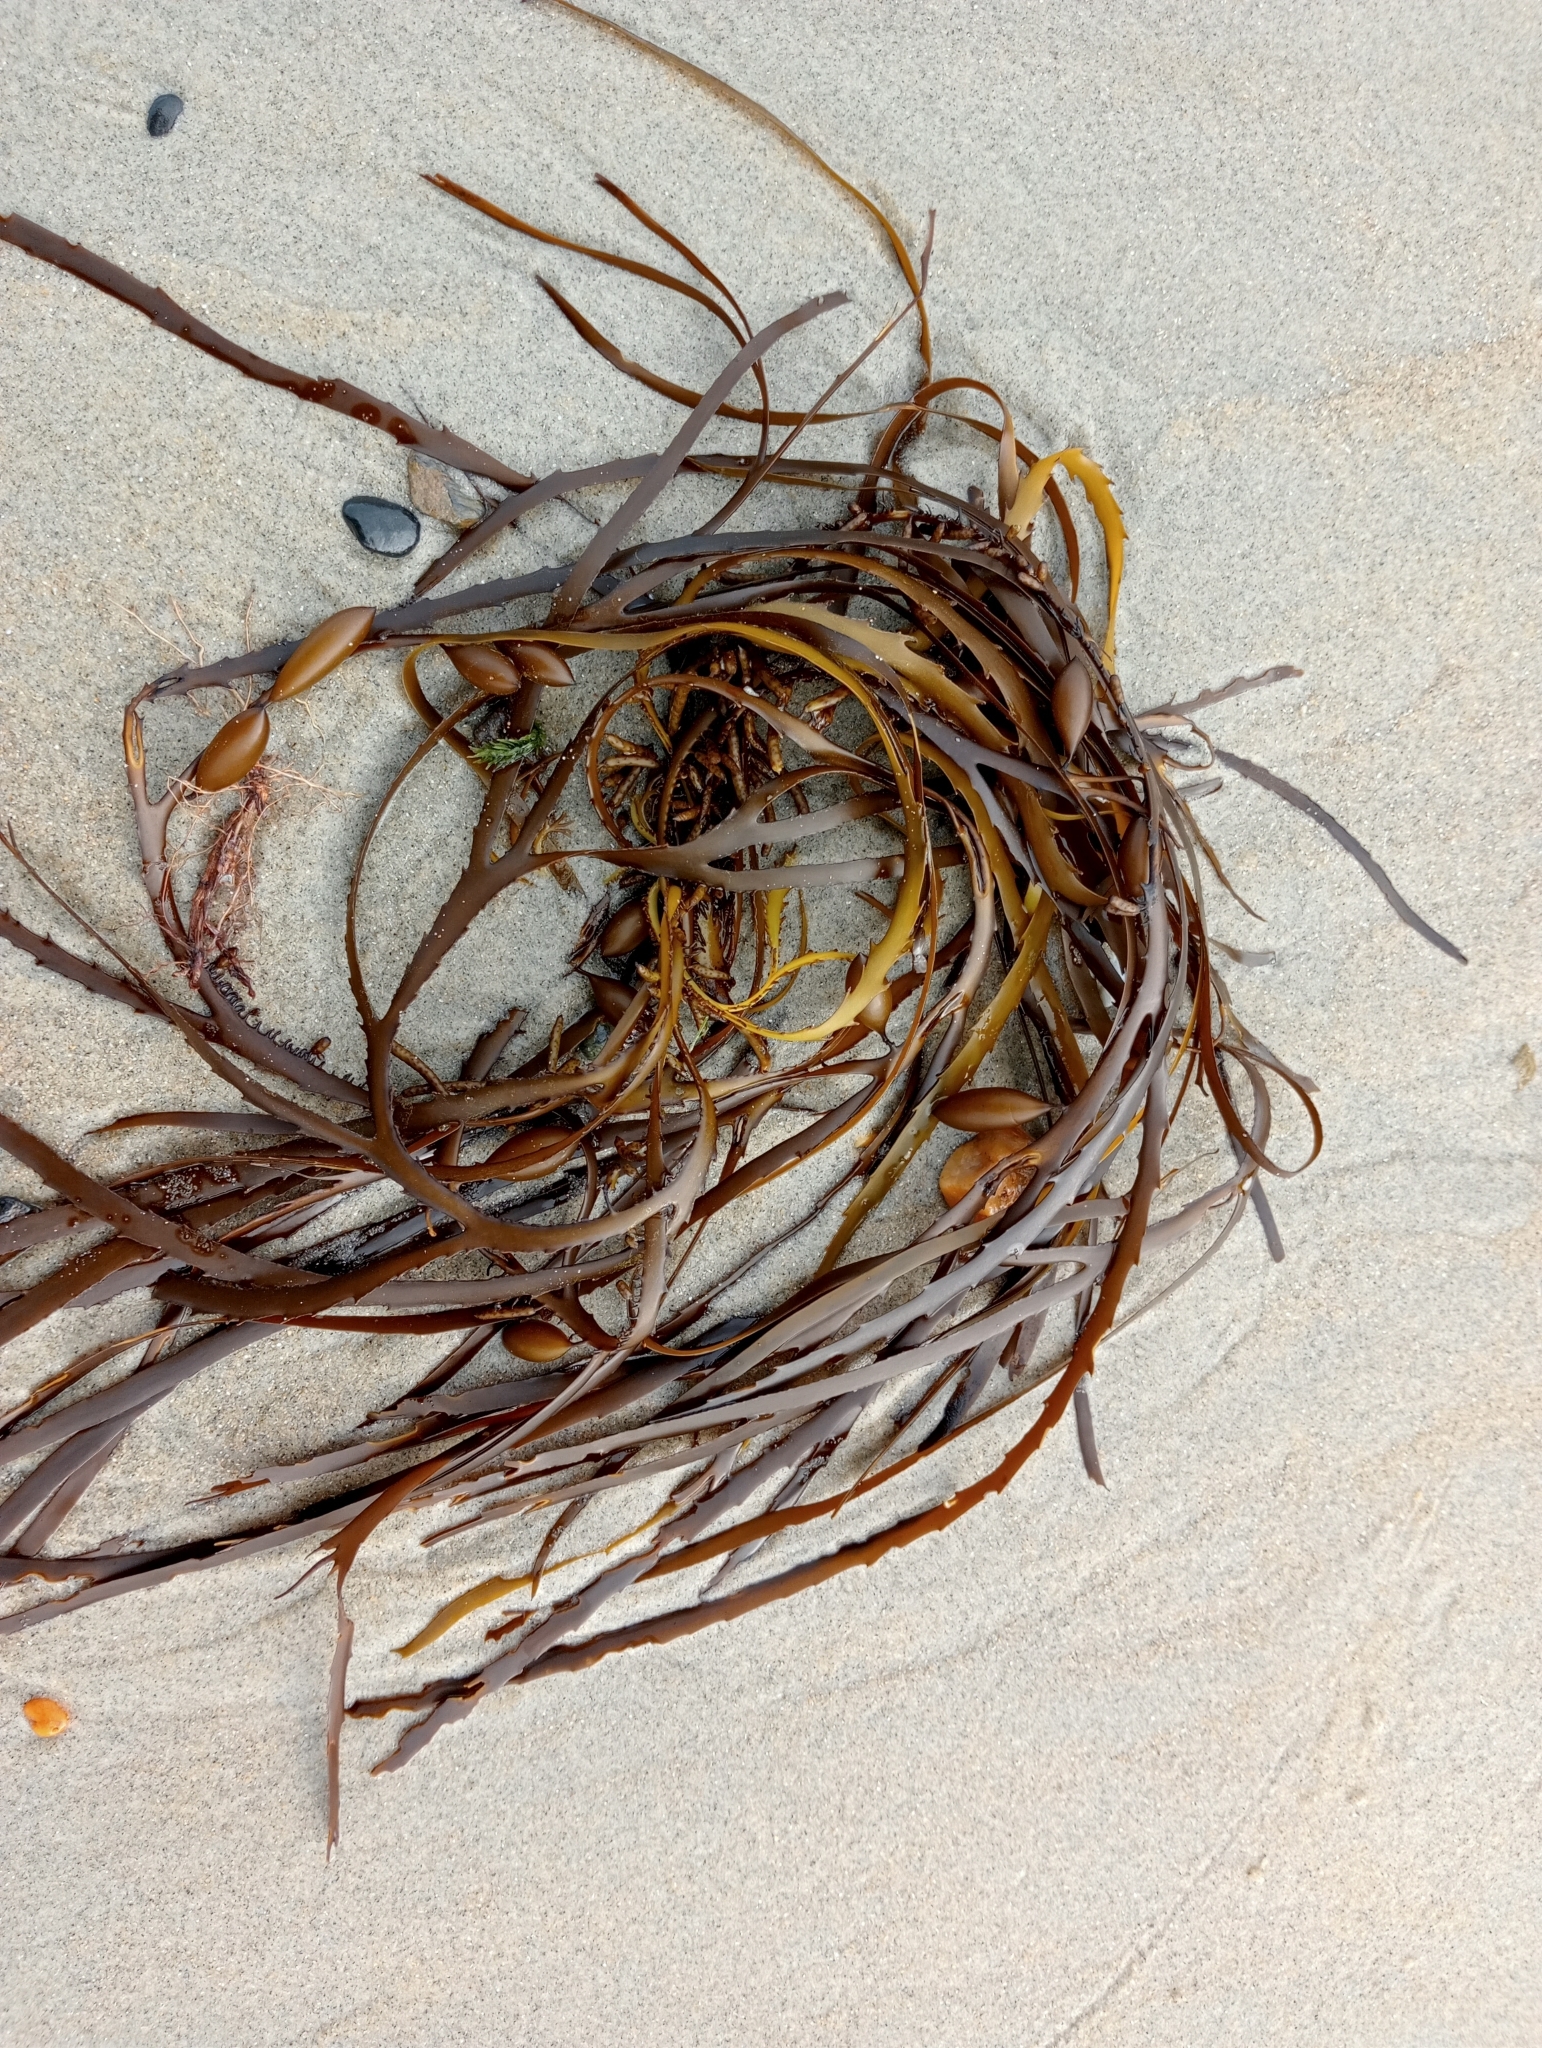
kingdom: Chromista
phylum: Ochrophyta
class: Phaeophyceae
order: Fucales
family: Seirococcaceae
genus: Marginariella
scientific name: Marginariella boryana
